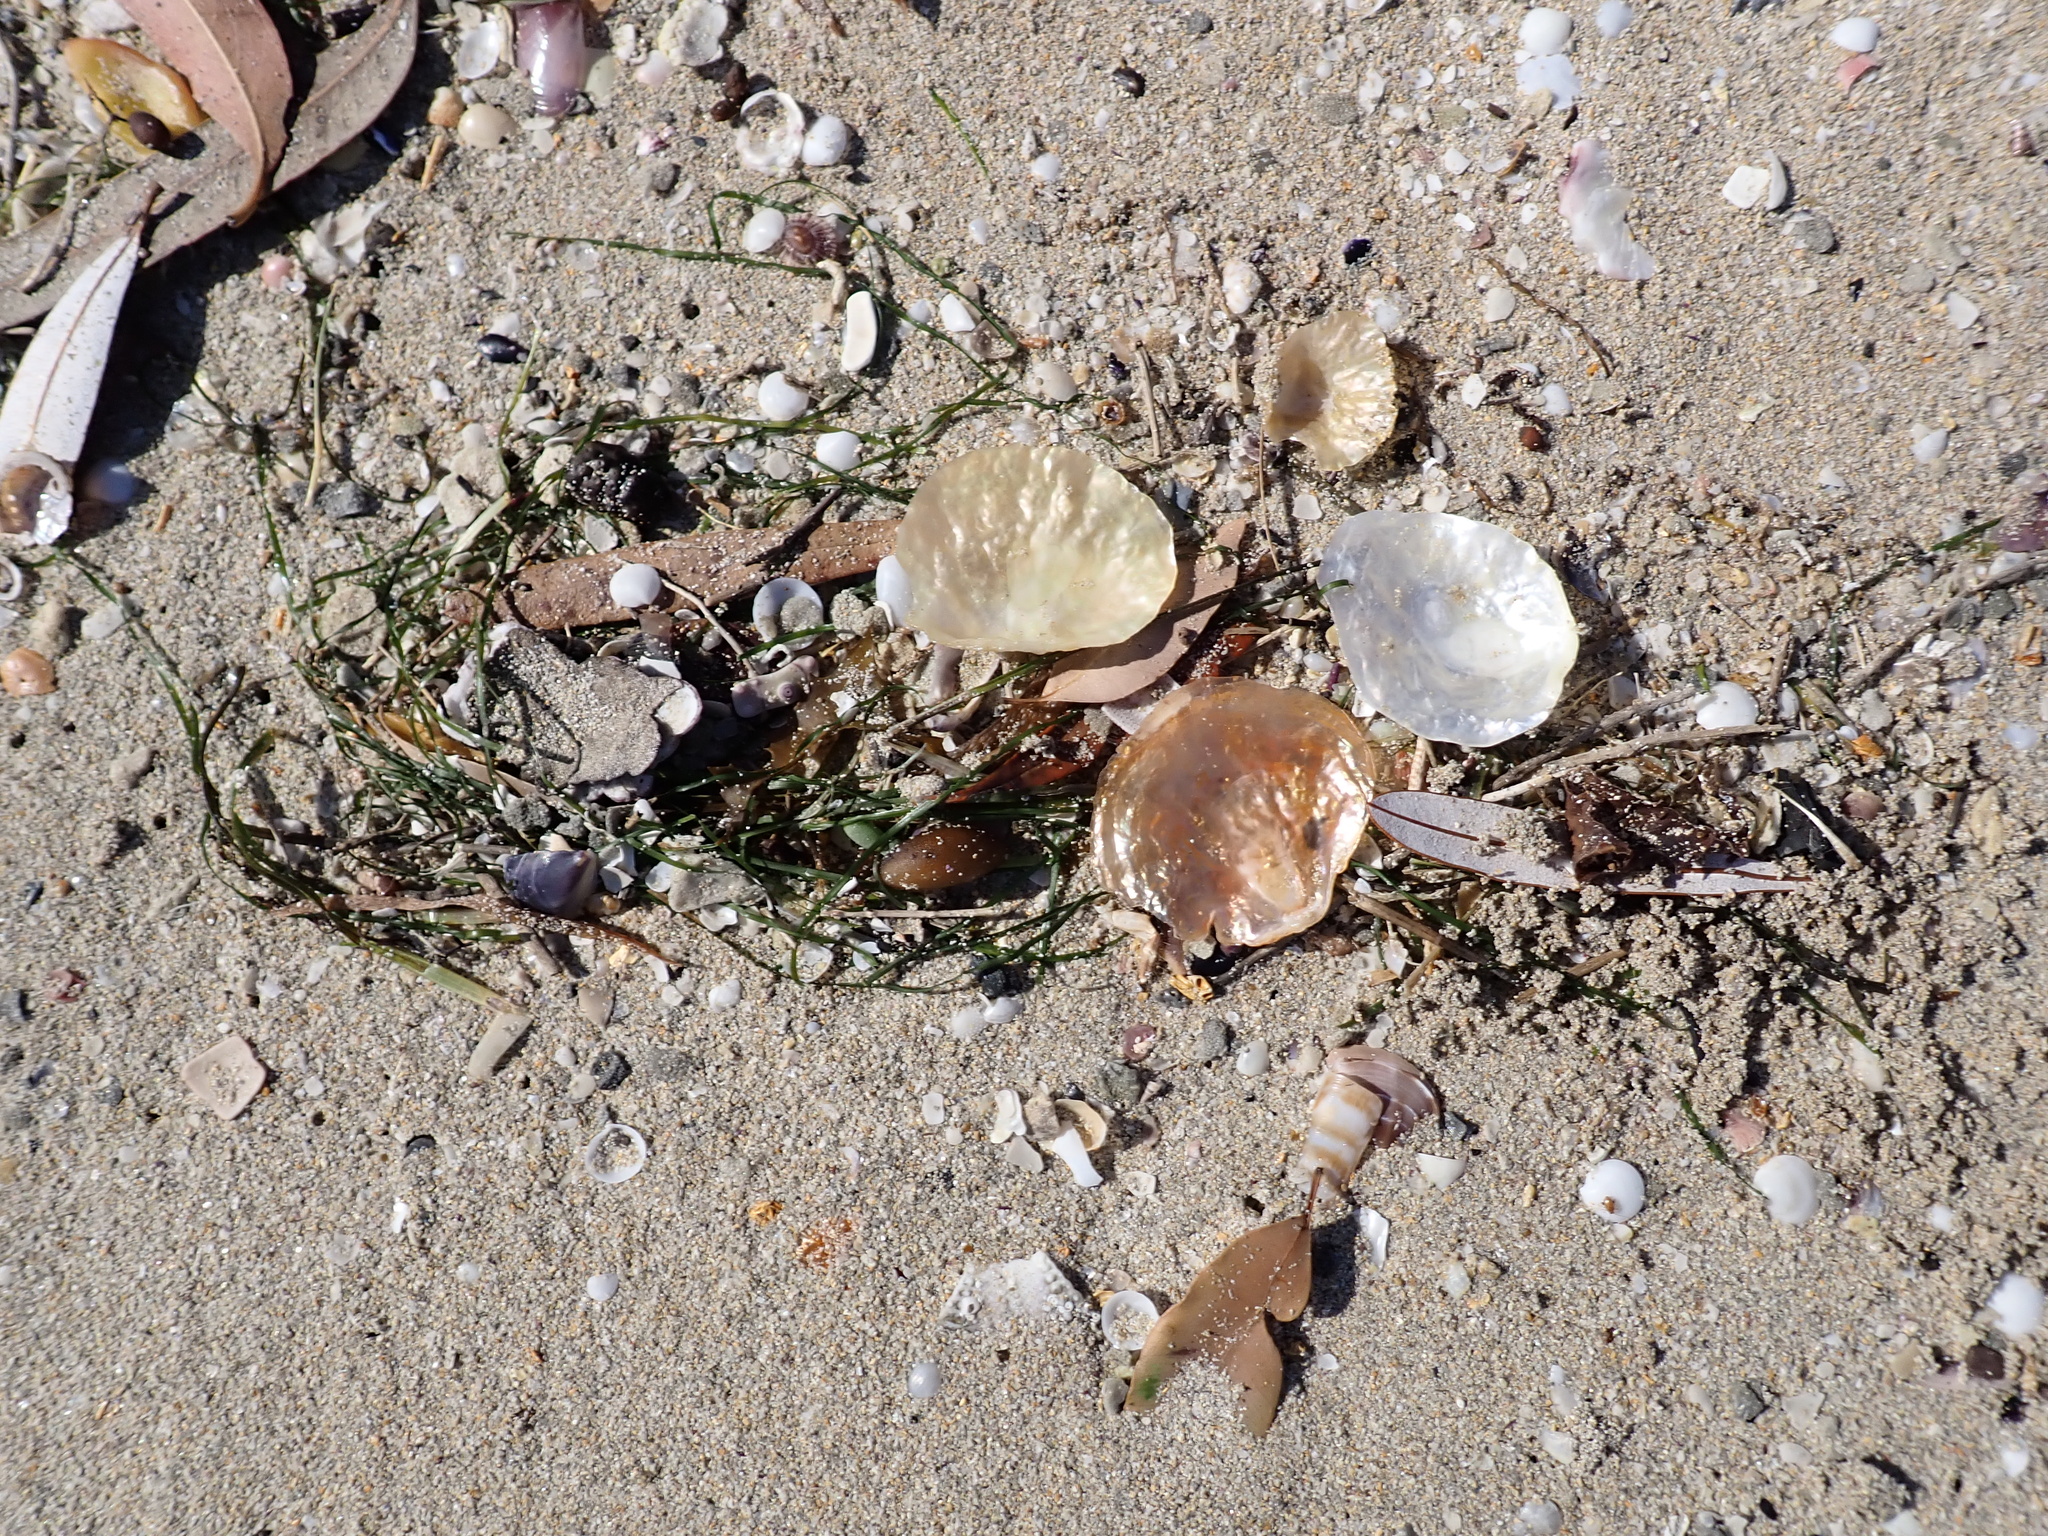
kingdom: Animalia
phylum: Mollusca
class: Bivalvia
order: Pectinida
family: Anomiidae
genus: Anomia
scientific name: Anomia trigonopsis
